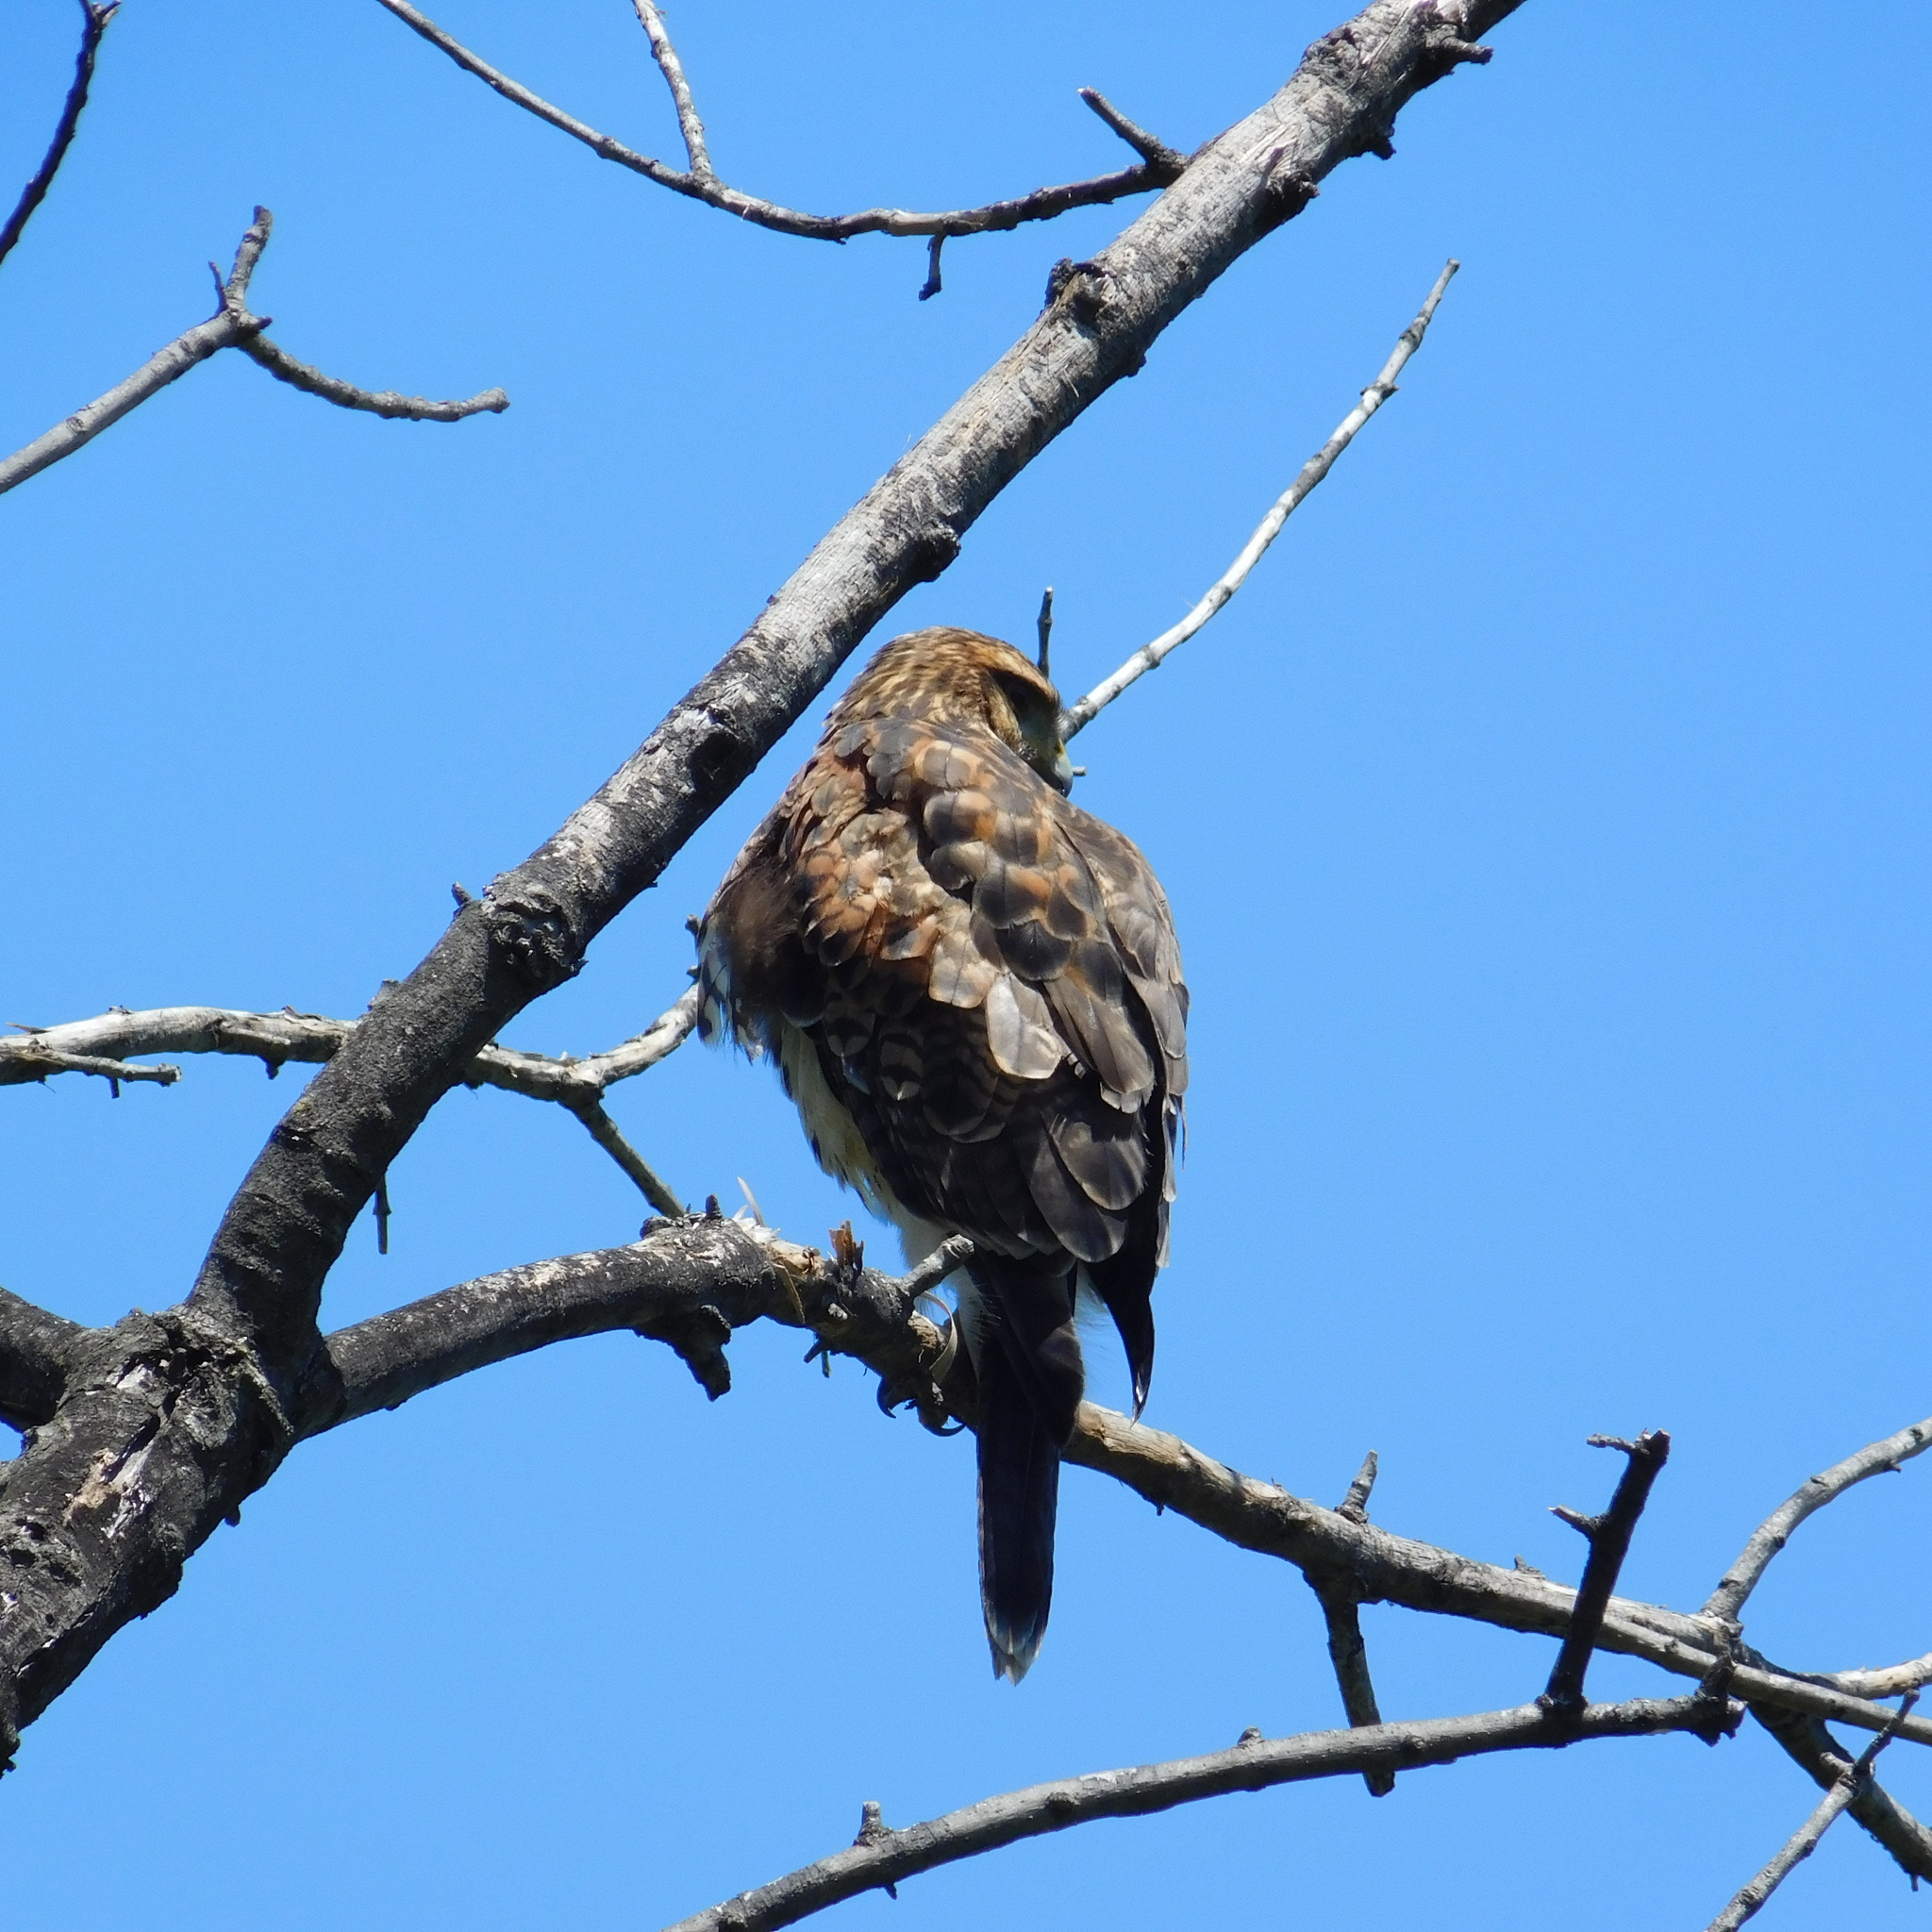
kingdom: Animalia
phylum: Chordata
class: Aves
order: Accipitriformes
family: Accipitridae
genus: Parabuteo
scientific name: Parabuteo unicinctus
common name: Harris's hawk
